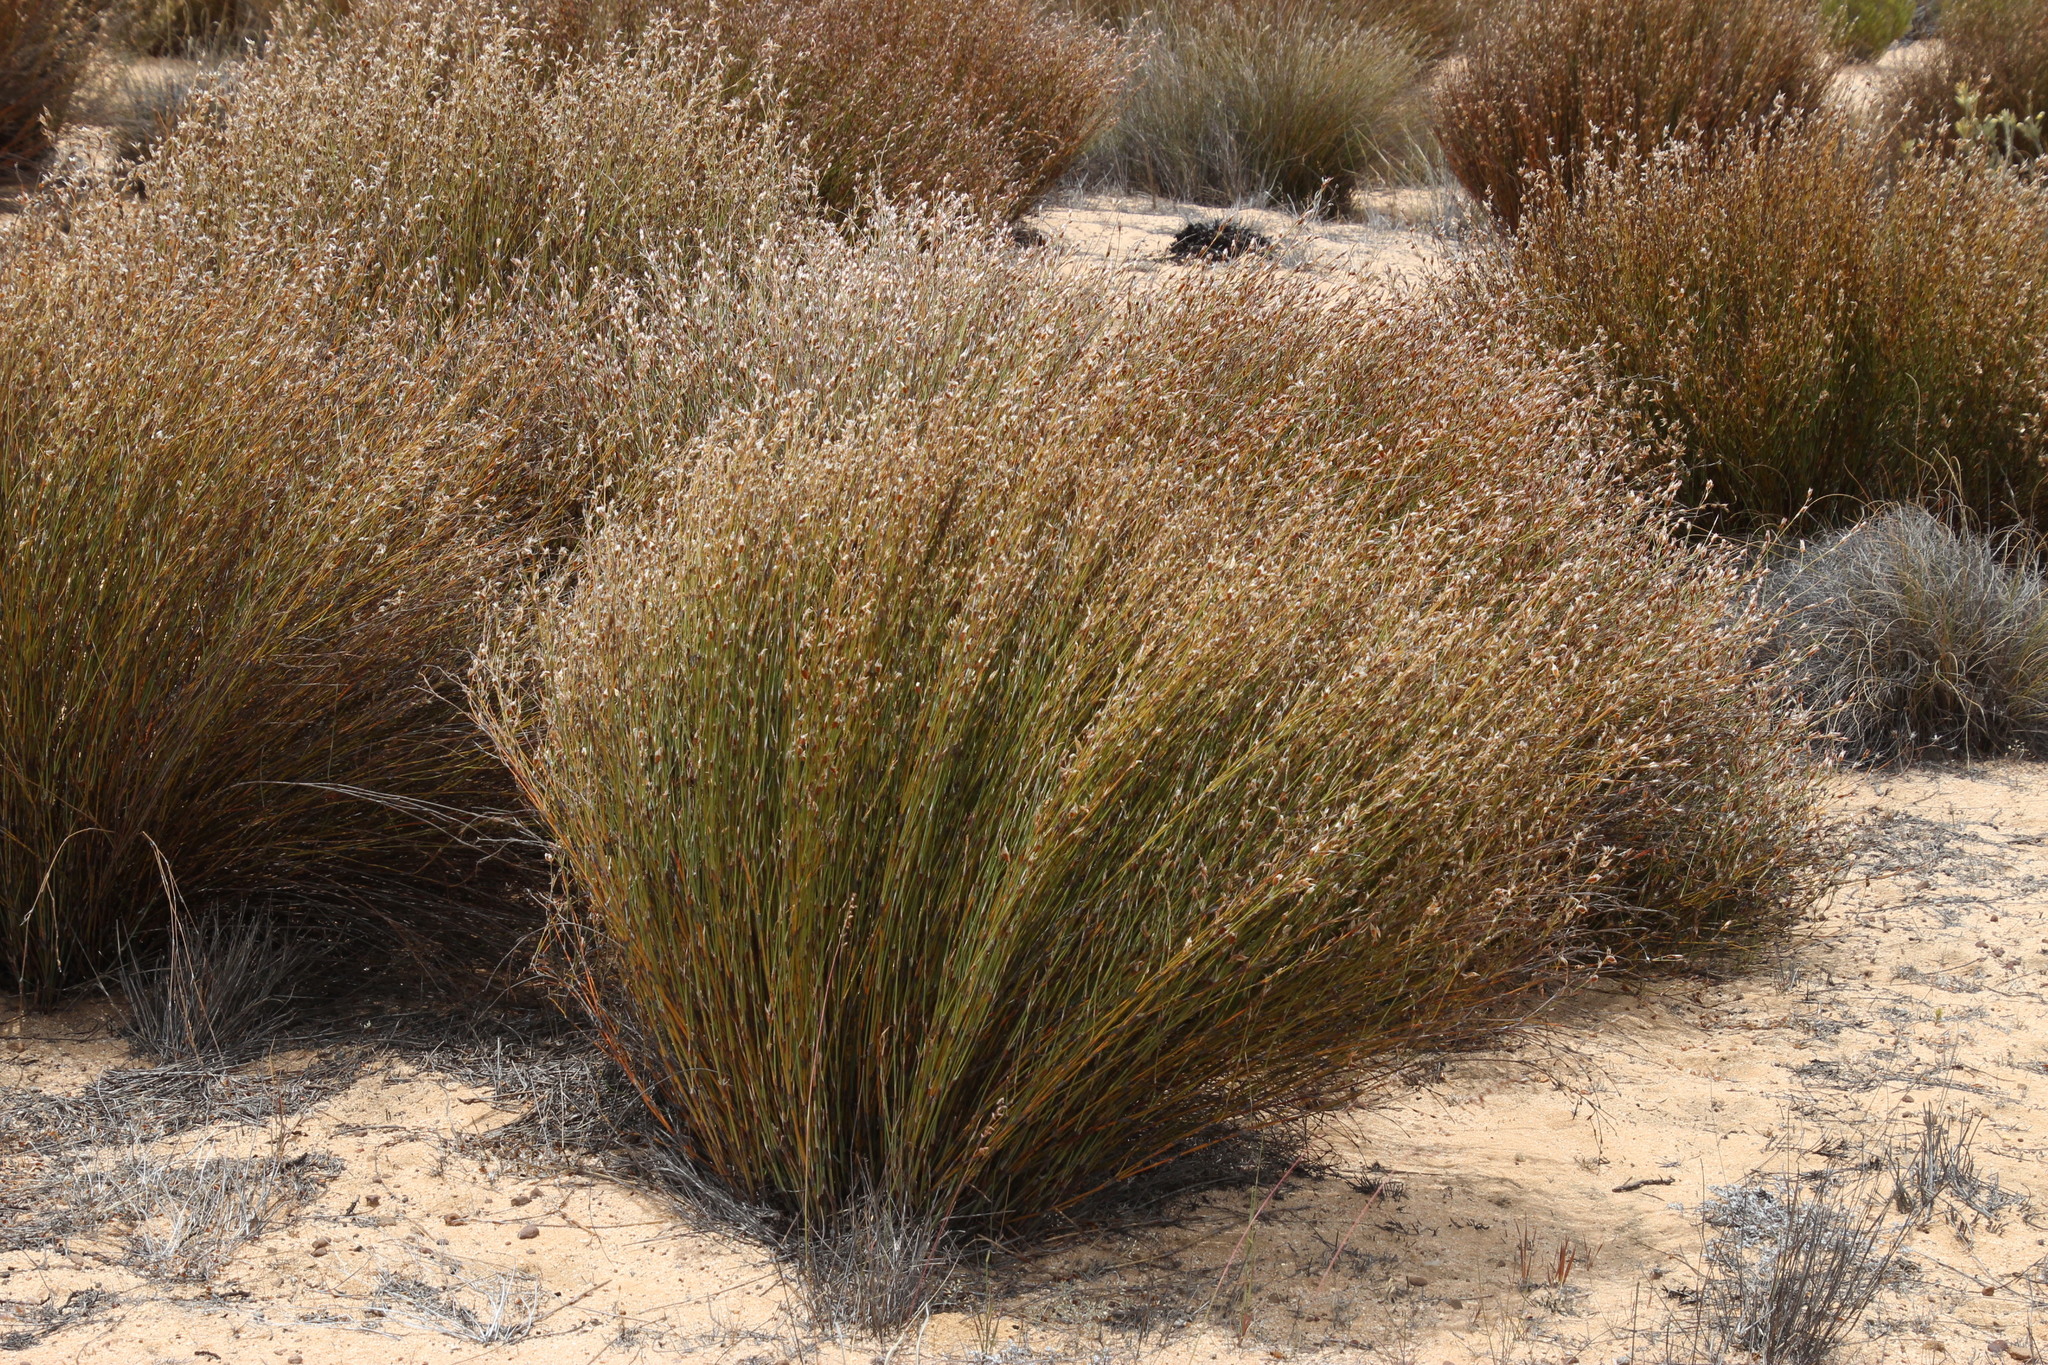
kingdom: Plantae
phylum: Tracheophyta
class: Liliopsida
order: Poales
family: Restionaceae
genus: Willdenowia
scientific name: Willdenowia teres
